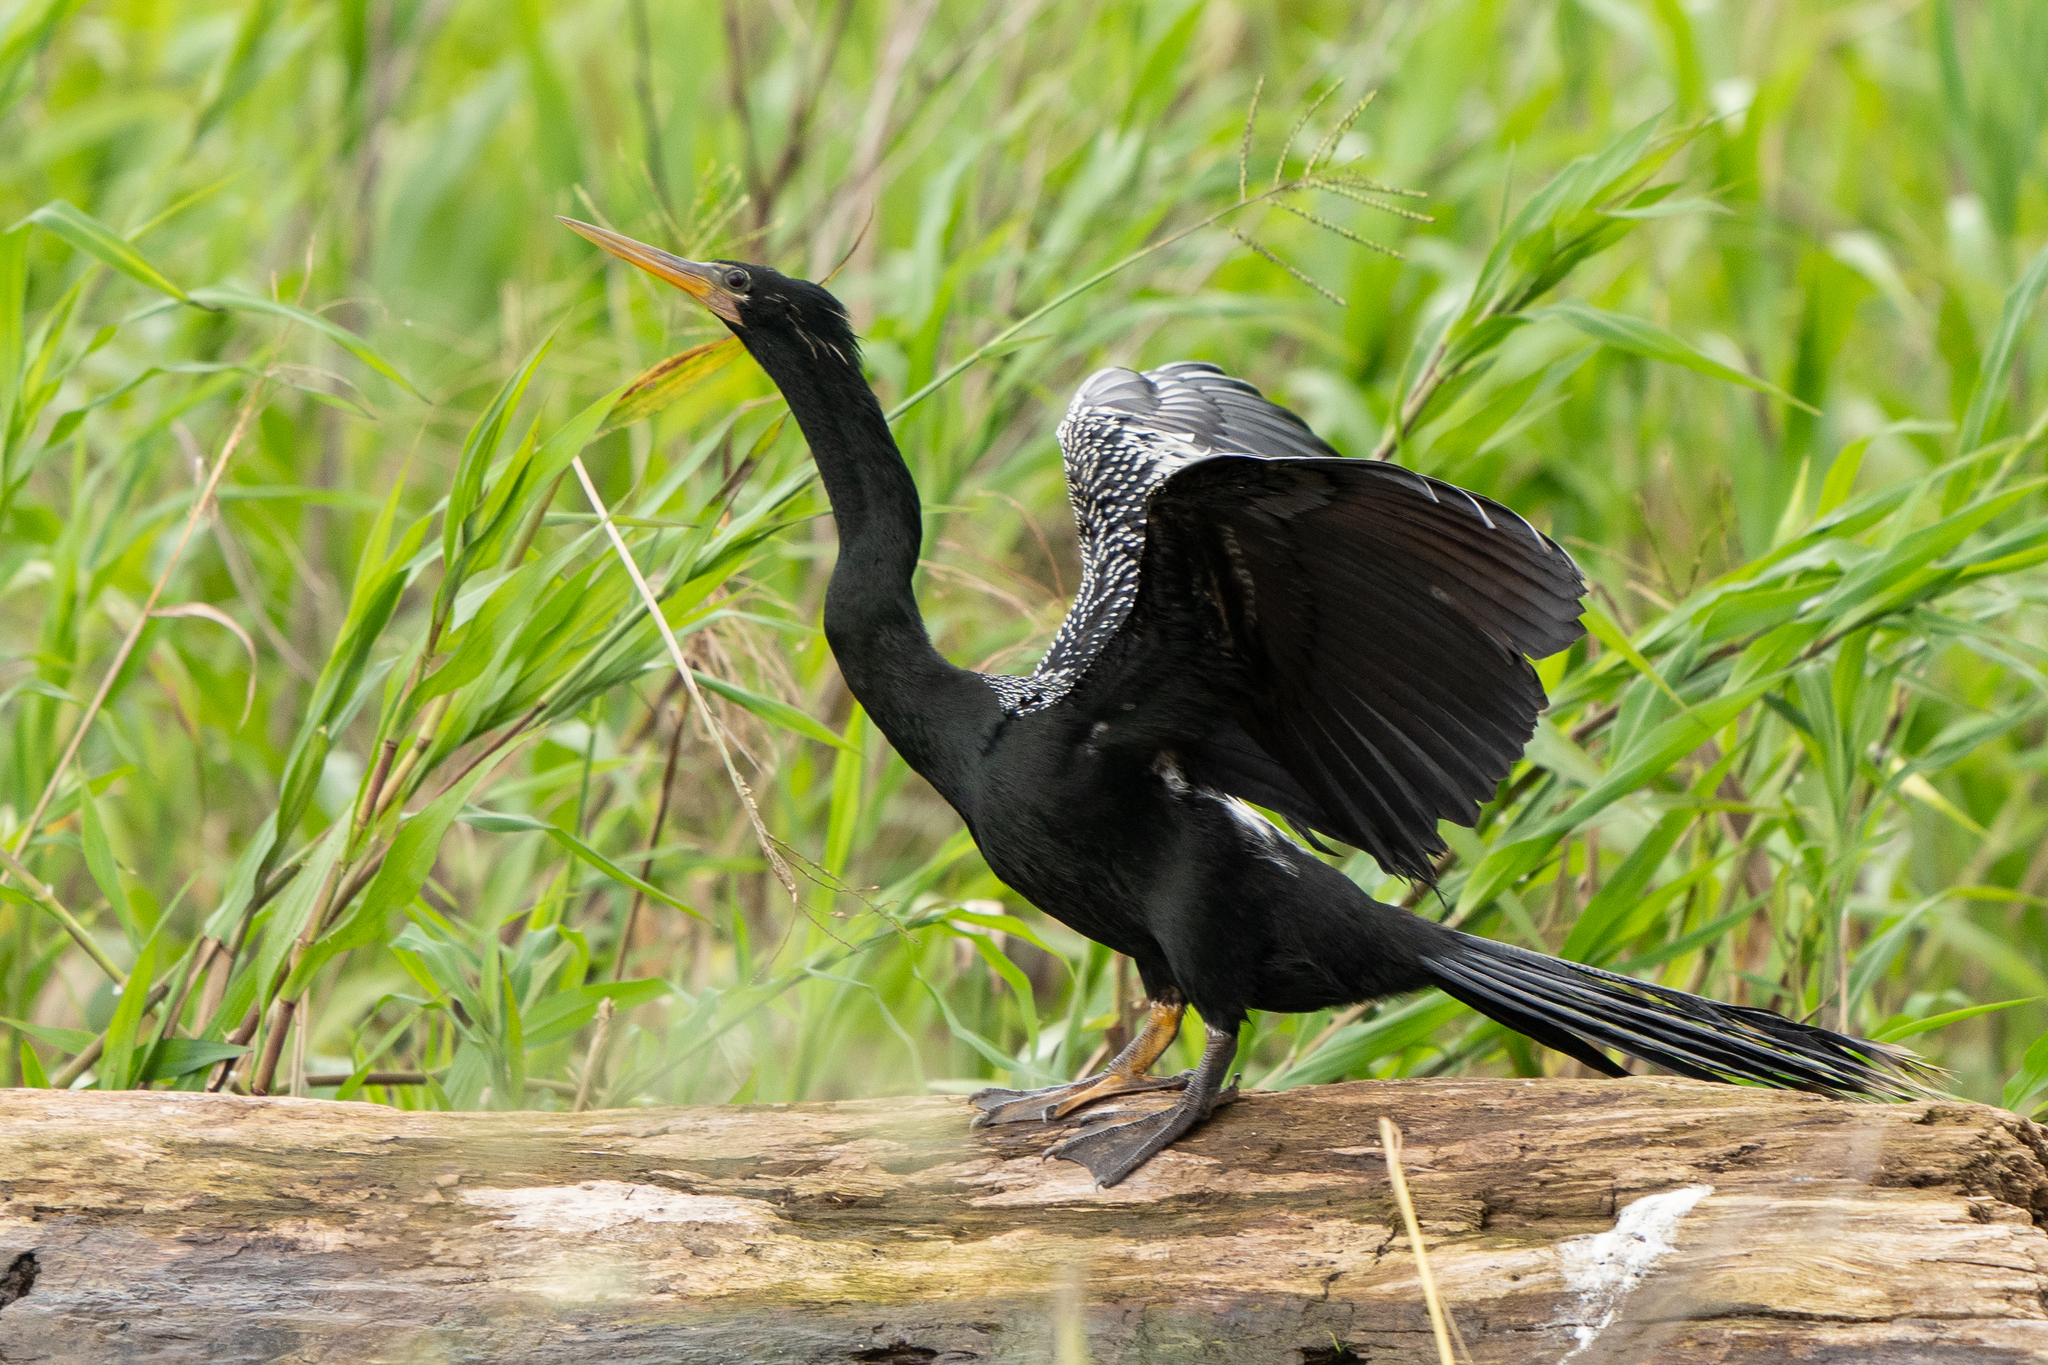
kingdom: Animalia
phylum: Chordata
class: Aves
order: Suliformes
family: Anhingidae
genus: Anhinga
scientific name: Anhinga anhinga
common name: Anhinga
